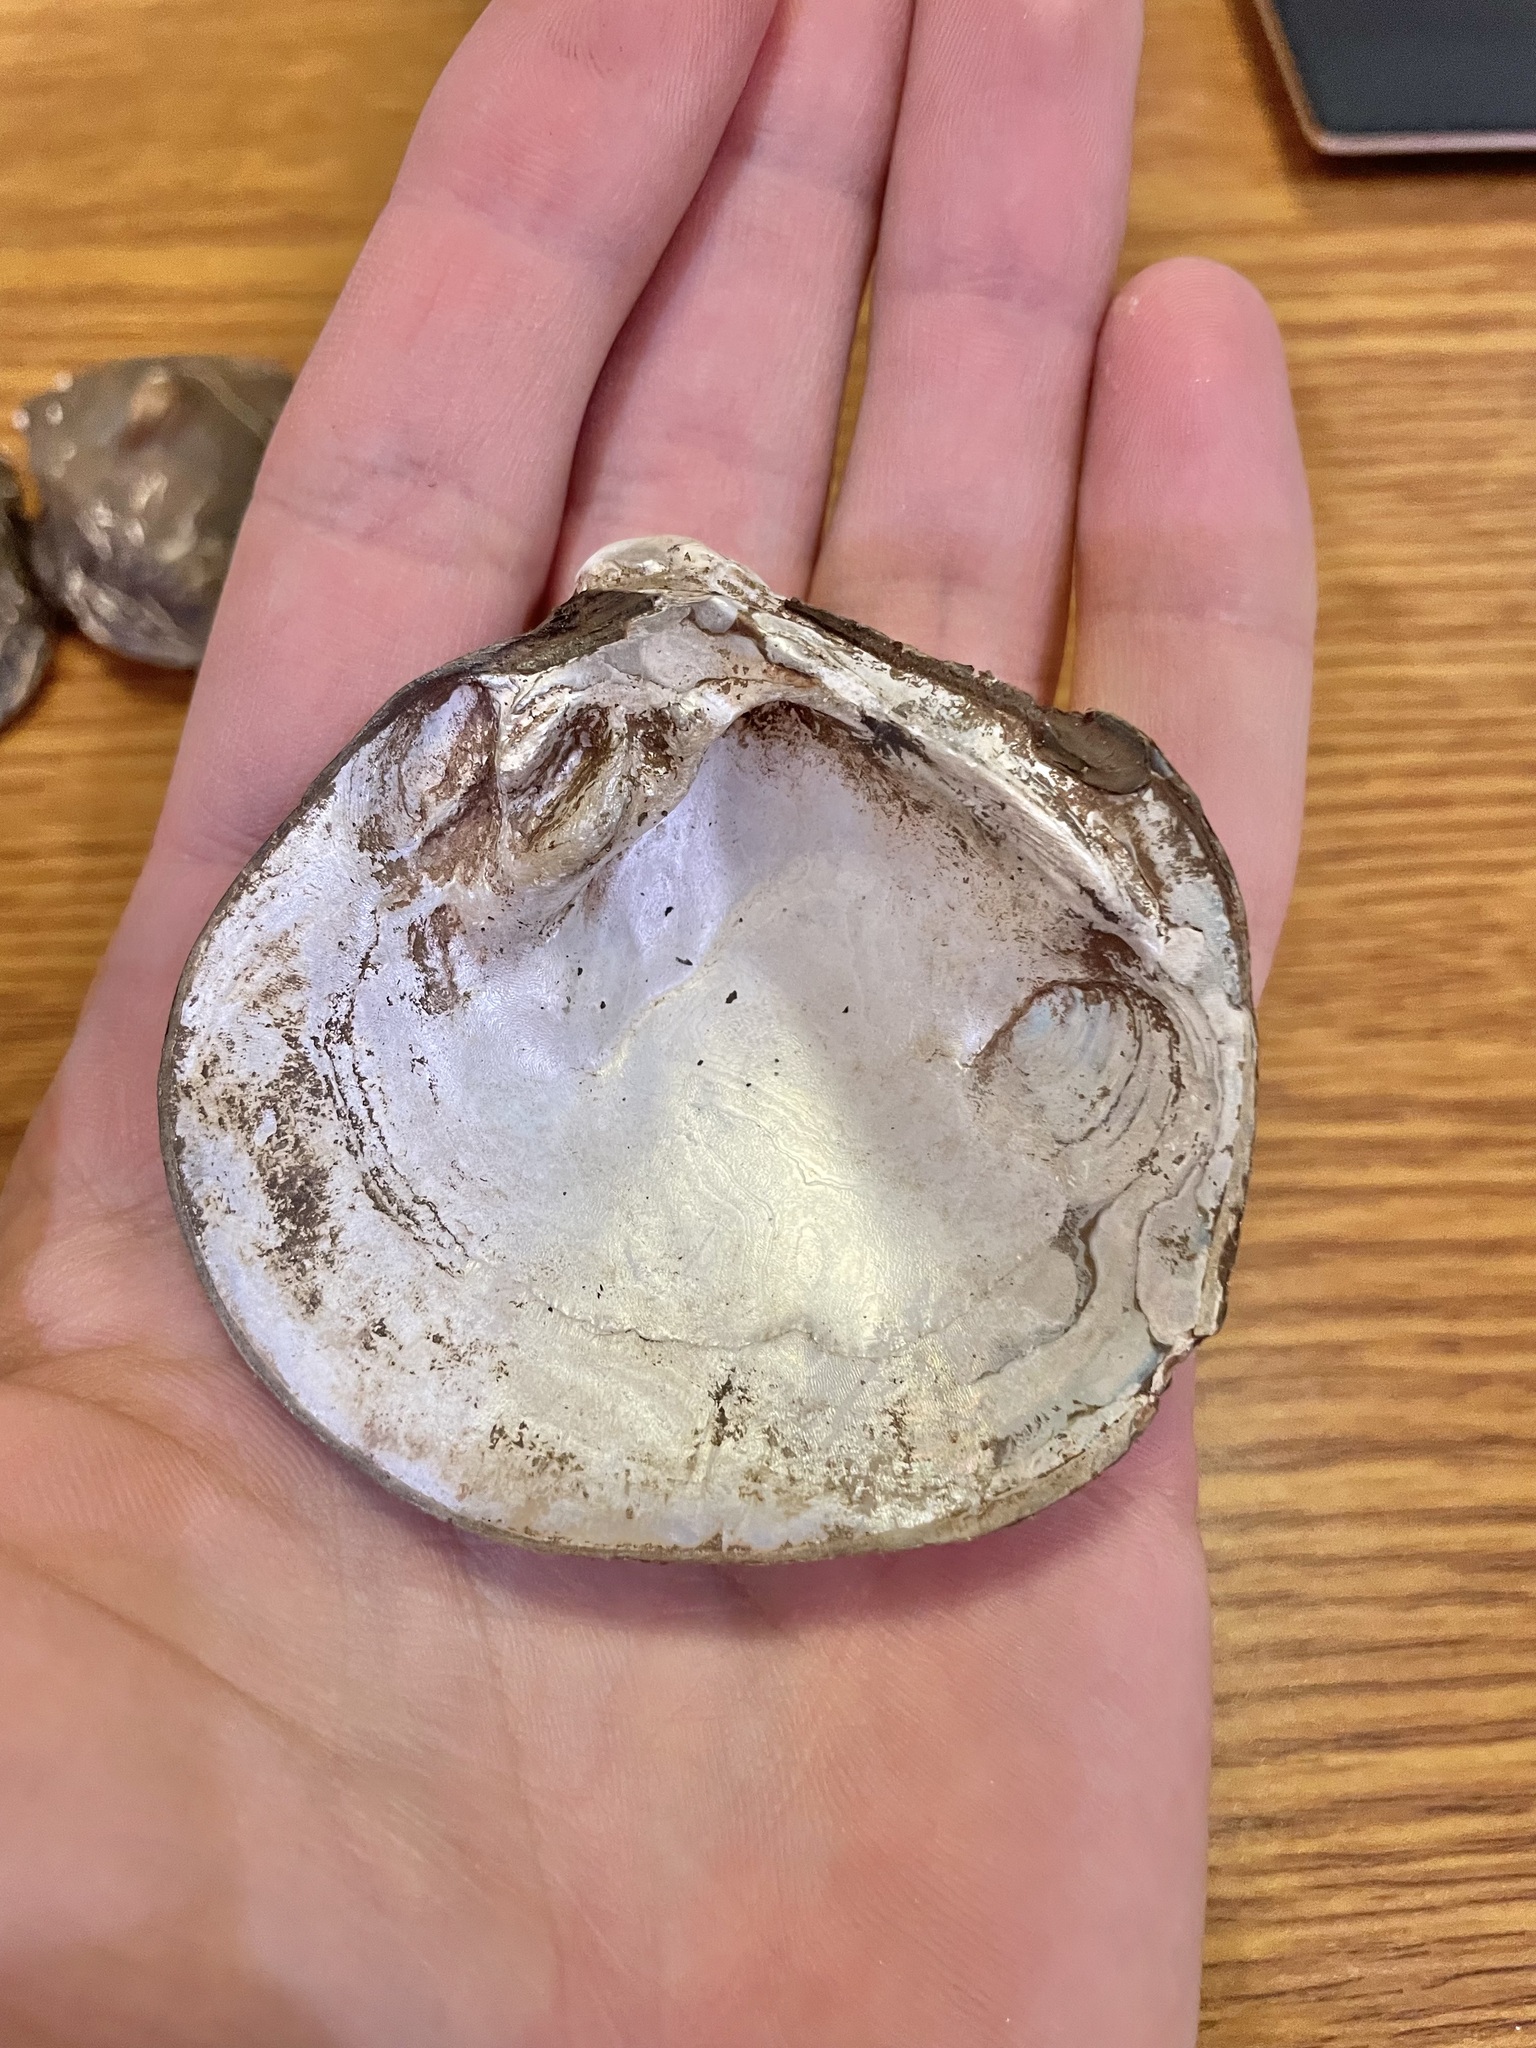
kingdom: Animalia
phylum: Mollusca
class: Bivalvia
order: Unionida
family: Unionidae
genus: Cyclonaias
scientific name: Cyclonaias pustulosa
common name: Pimpleback
